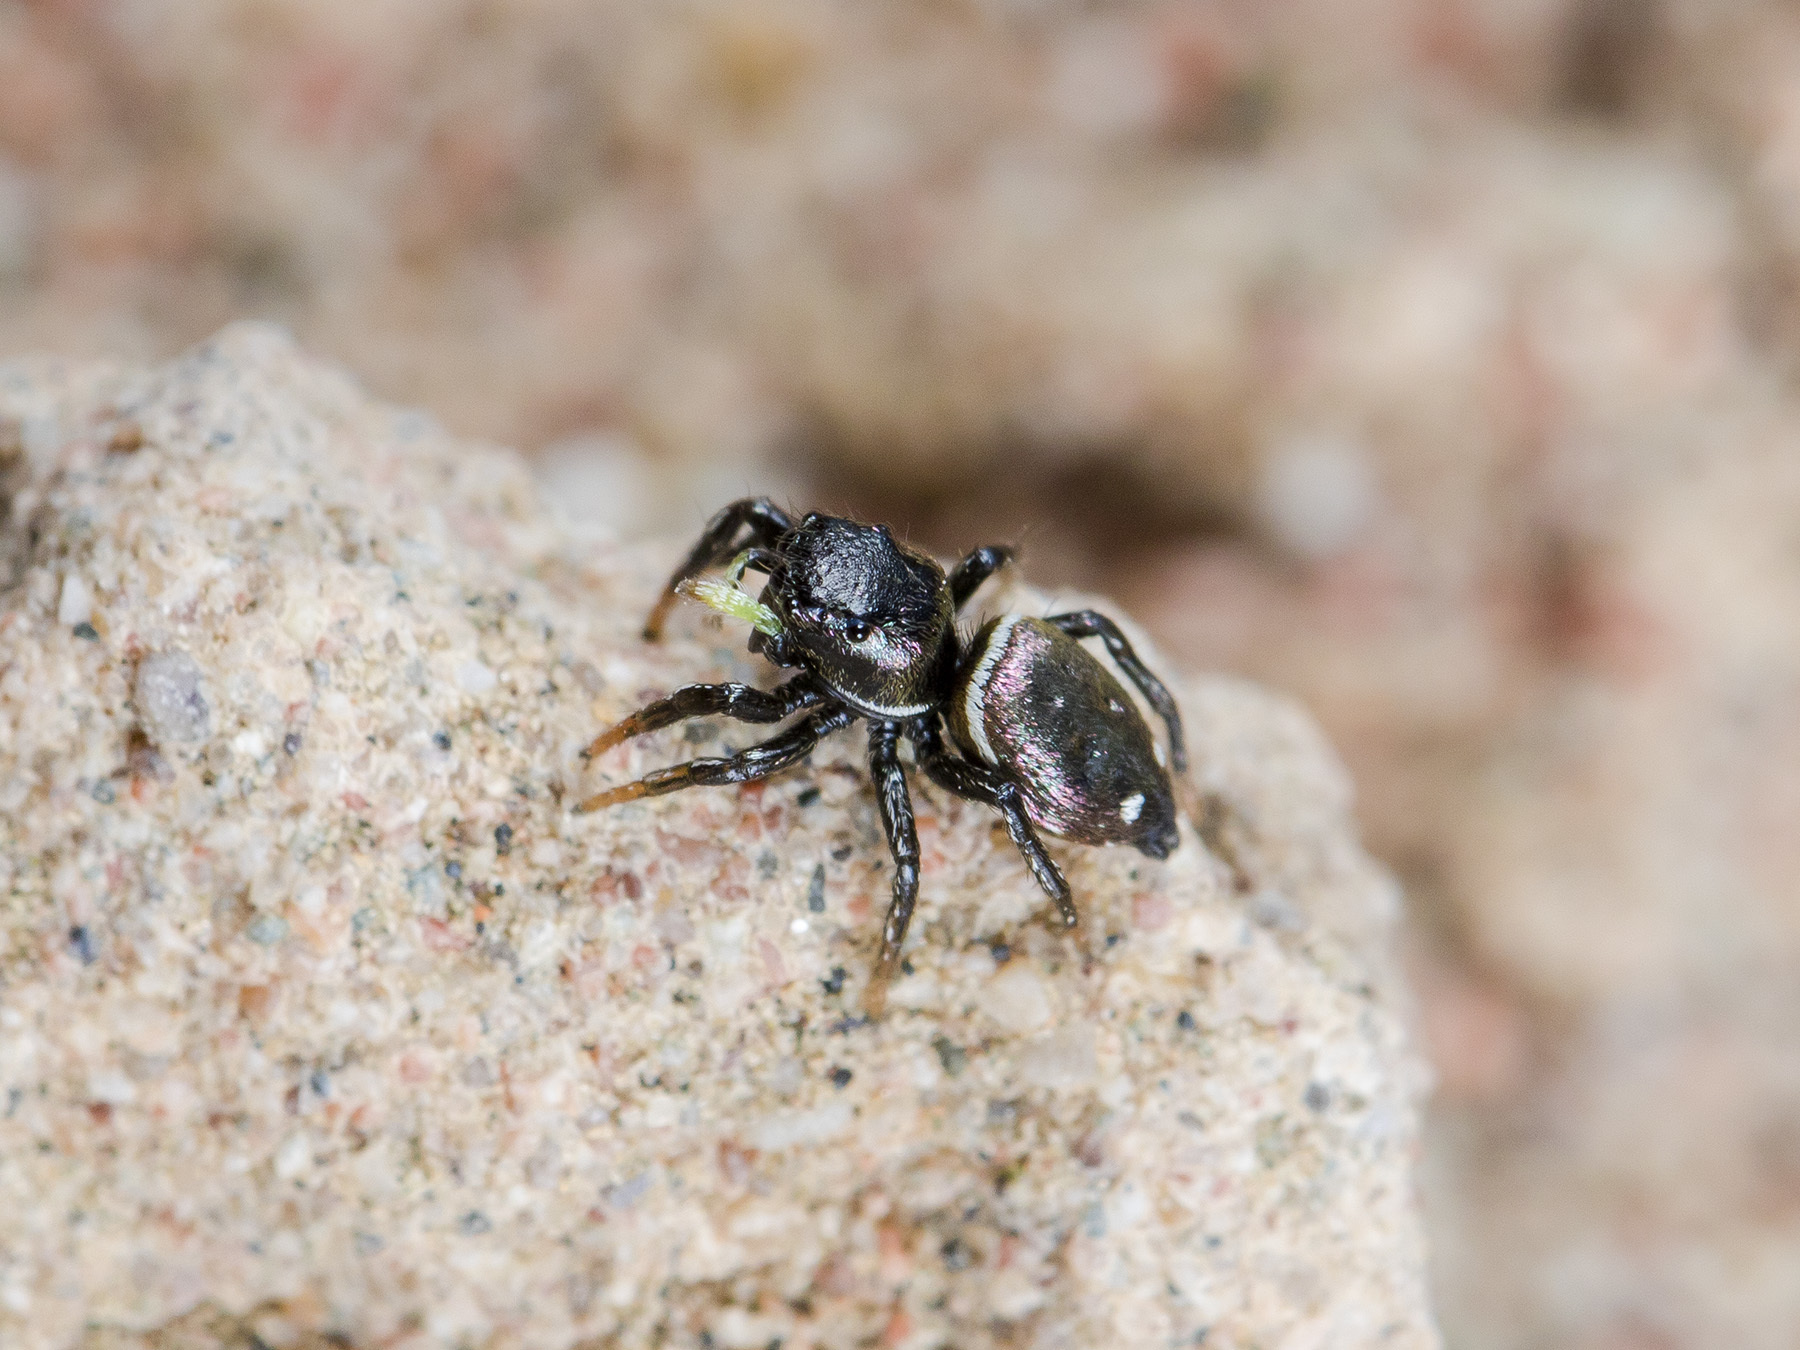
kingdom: Animalia
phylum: Arthropoda
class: Arachnida
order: Araneae
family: Salticidae
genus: Heliophanus
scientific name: Heliophanus chovdensis
